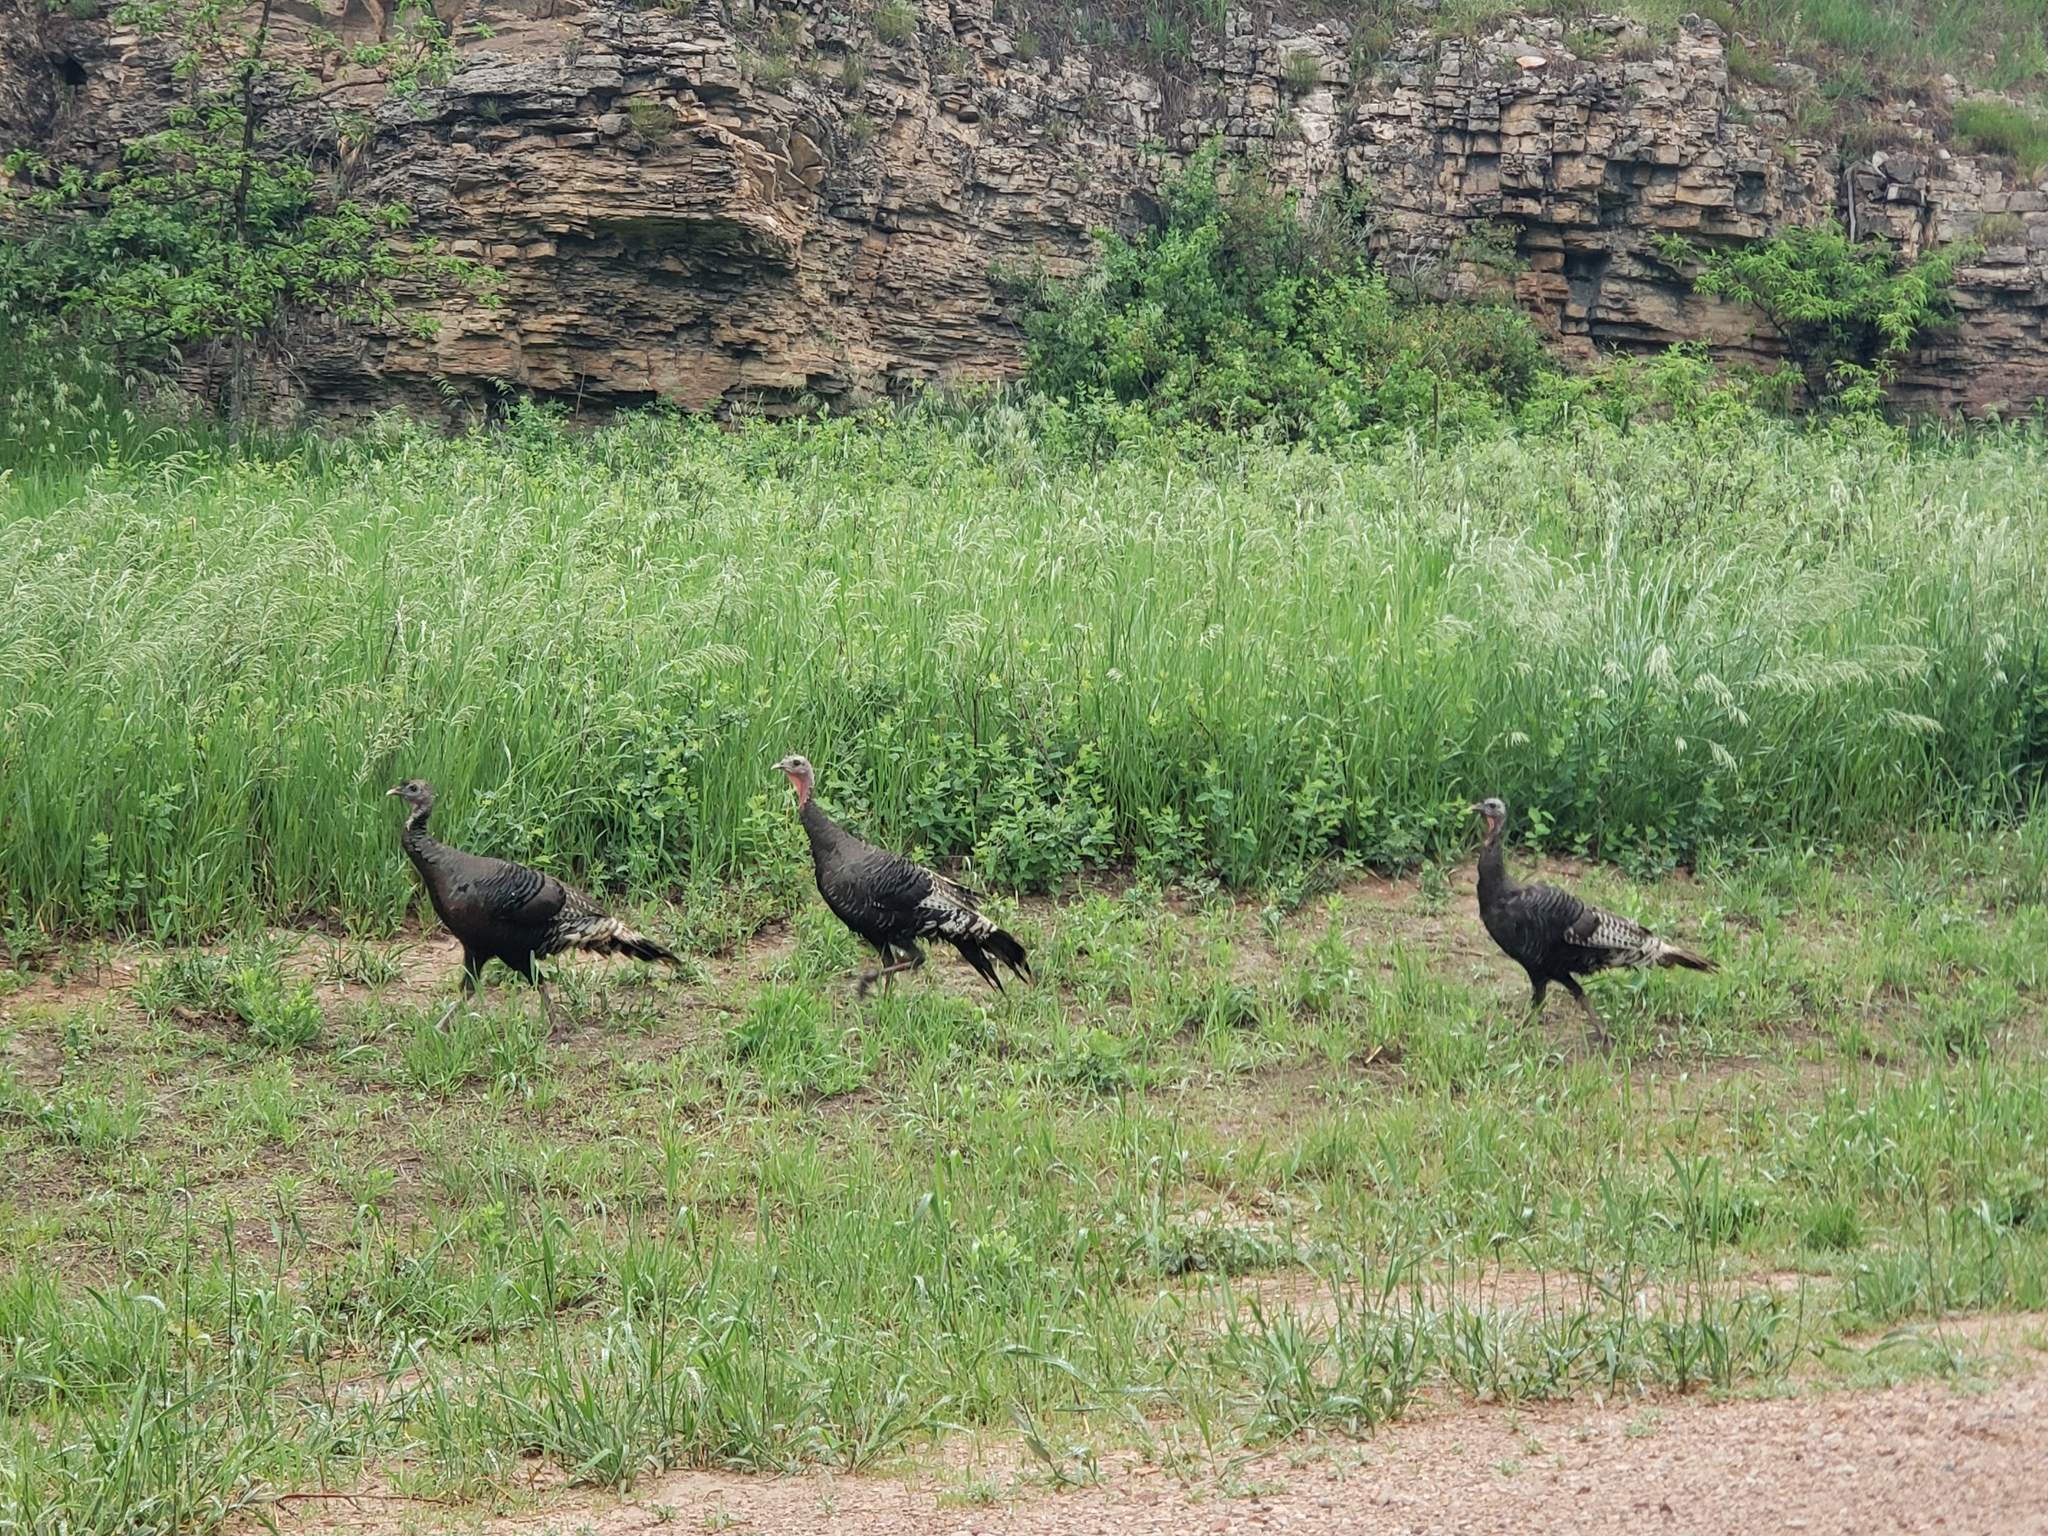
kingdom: Animalia
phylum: Chordata
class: Aves
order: Galliformes
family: Phasianidae
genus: Meleagris
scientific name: Meleagris gallopavo
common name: Wild turkey
